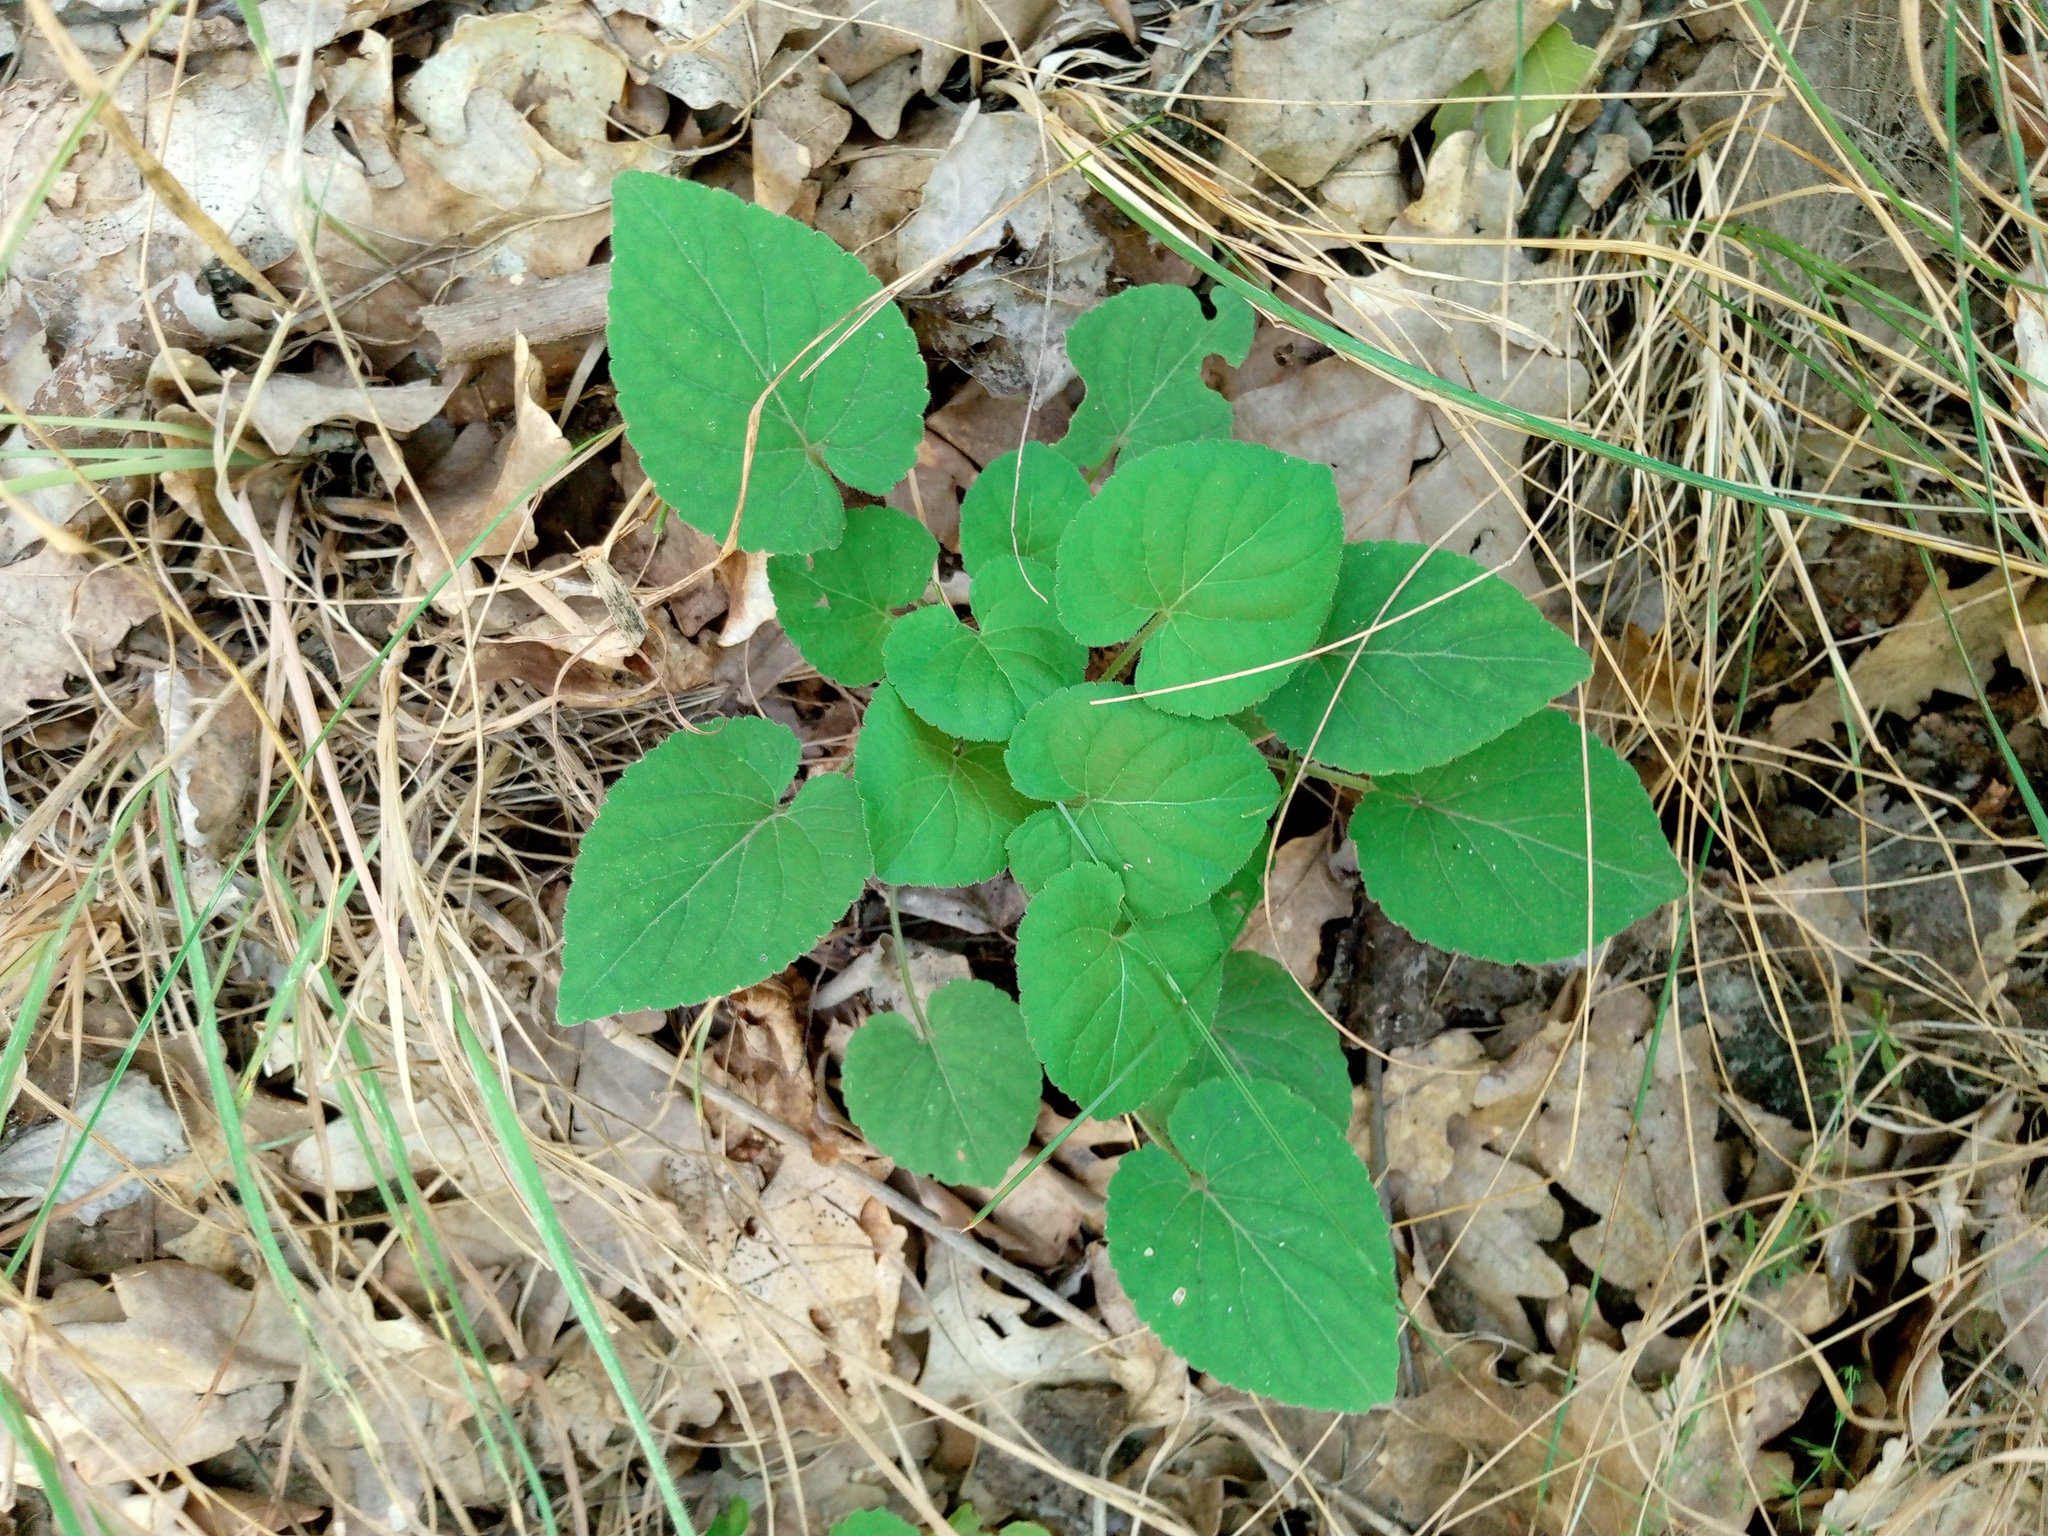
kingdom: Plantae
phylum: Tracheophyta
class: Magnoliopsida
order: Malpighiales
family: Violaceae
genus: Viola
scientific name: Viola collina
